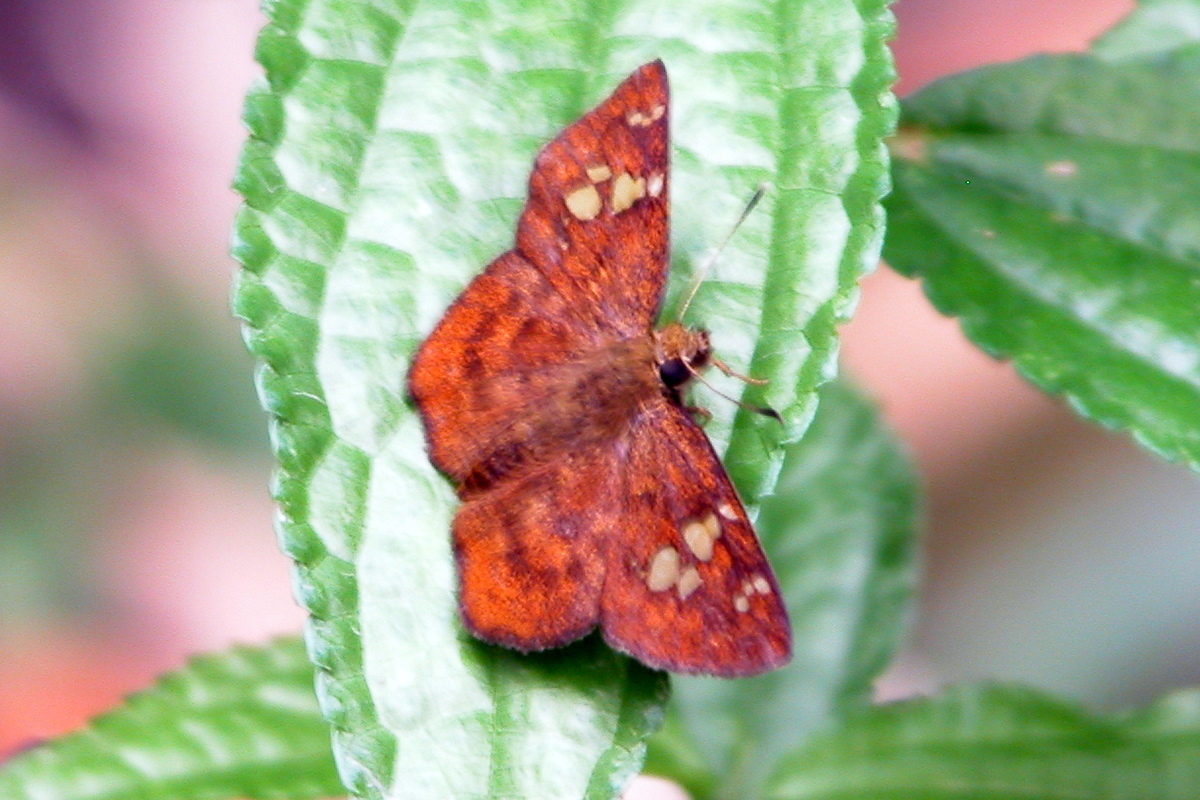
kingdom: Animalia
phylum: Arthropoda
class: Insecta
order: Lepidoptera
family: Hesperiidae
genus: Pseudocoladenia
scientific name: Pseudocoladenia fabia
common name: Fulvous pied flat
